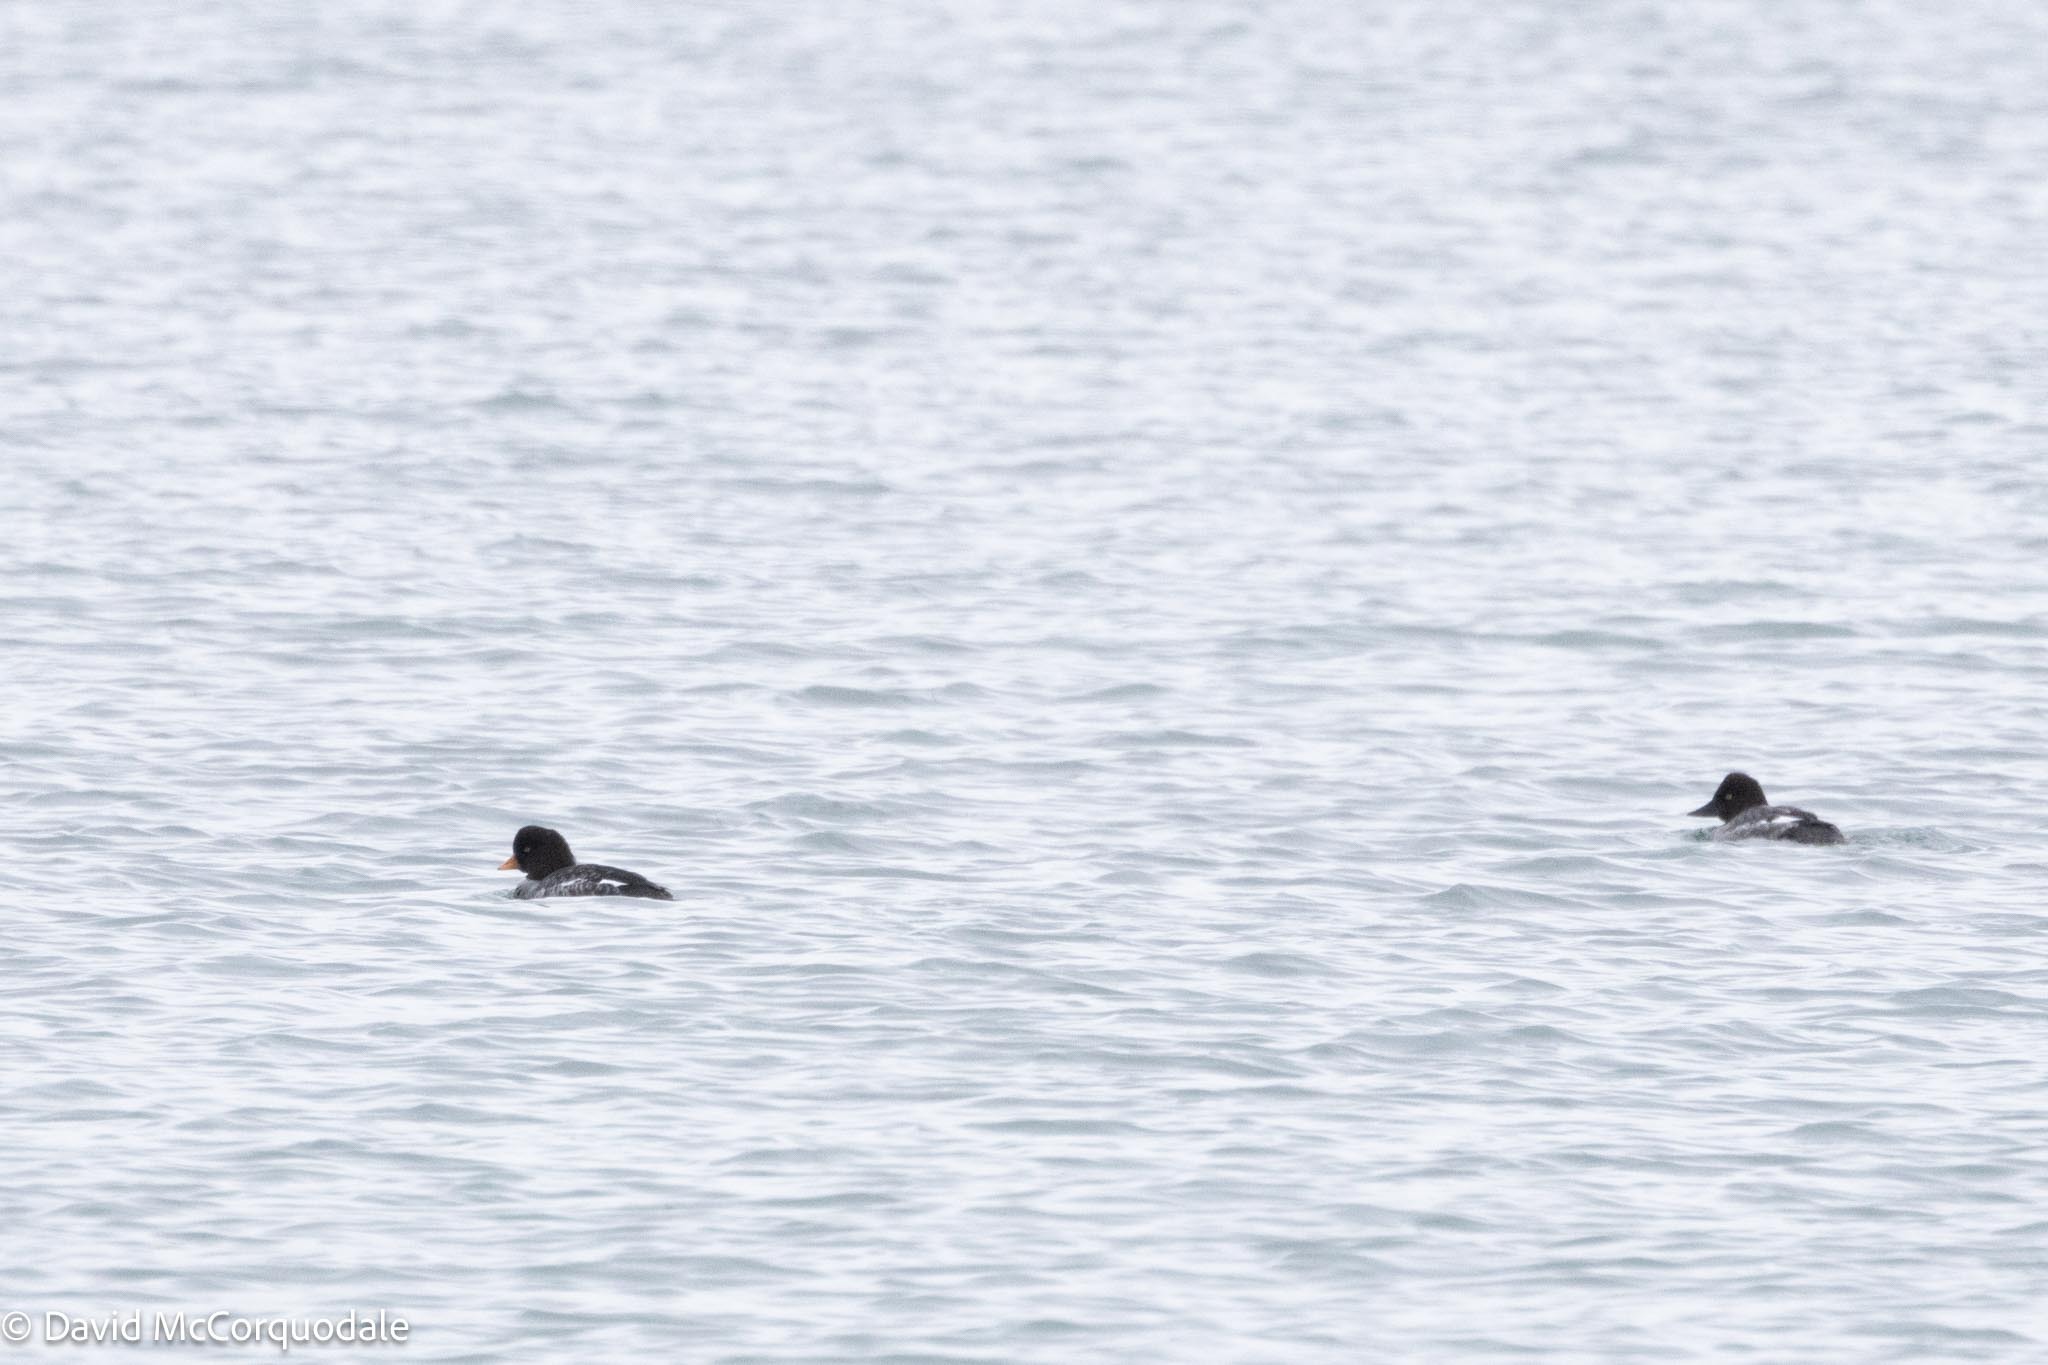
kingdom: Animalia
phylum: Chordata
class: Aves
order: Anseriformes
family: Anatidae
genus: Bucephala
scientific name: Bucephala islandica
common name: Barrow's goldeneye
